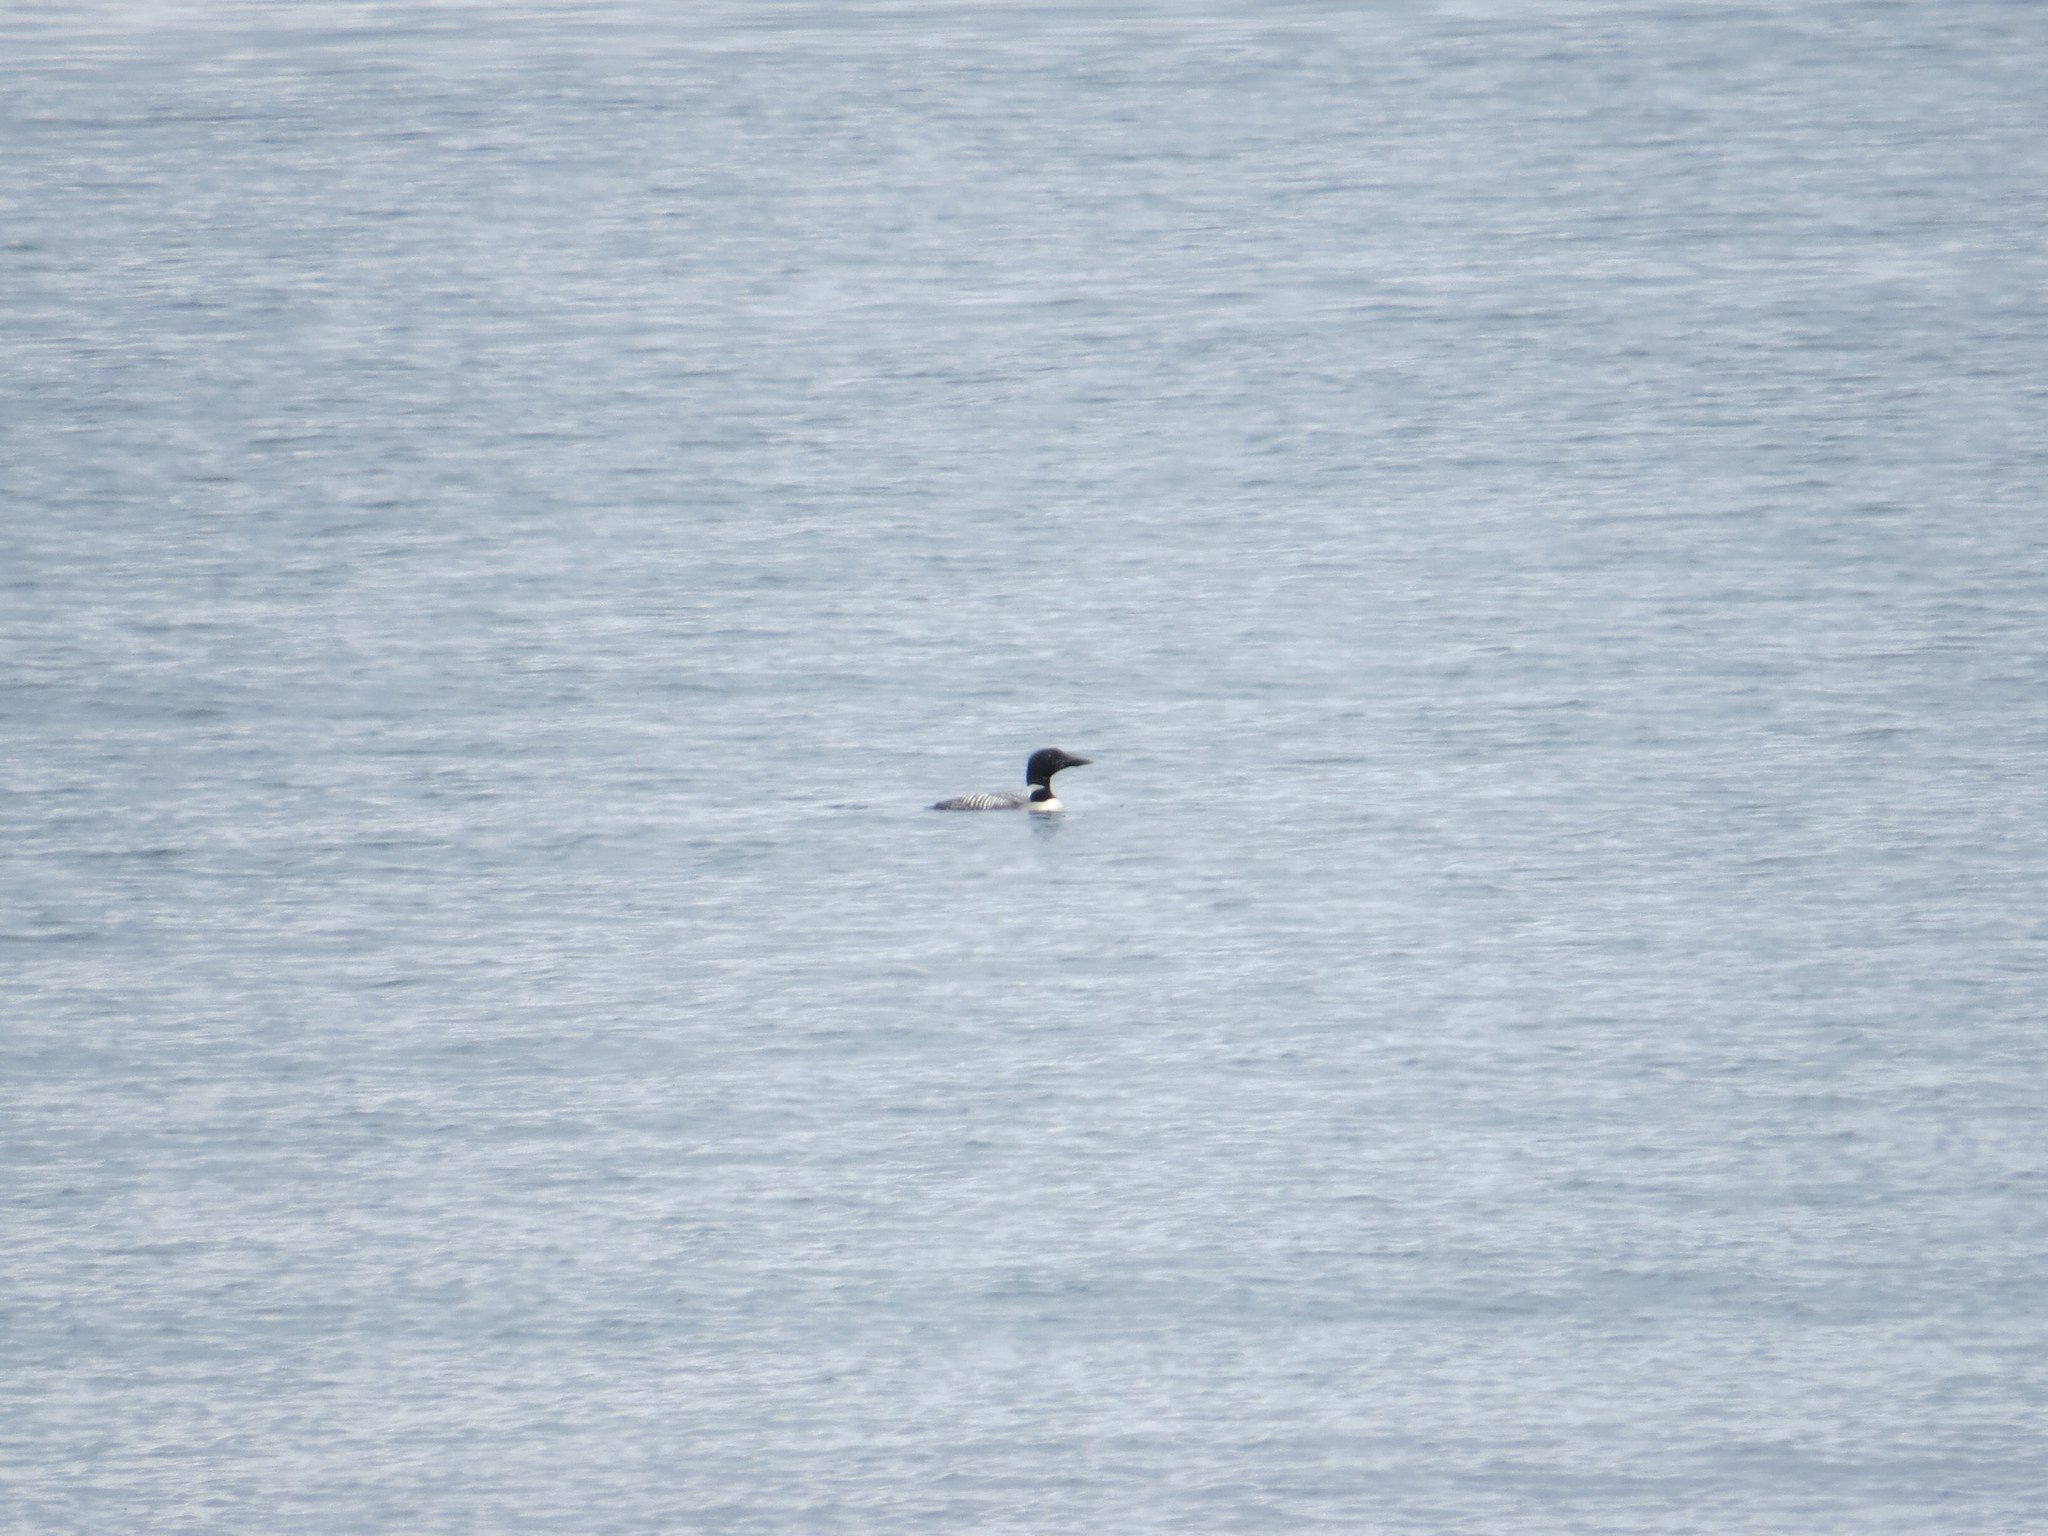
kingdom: Animalia
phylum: Chordata
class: Aves
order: Gaviiformes
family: Gaviidae
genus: Gavia
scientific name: Gavia immer
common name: Common loon
